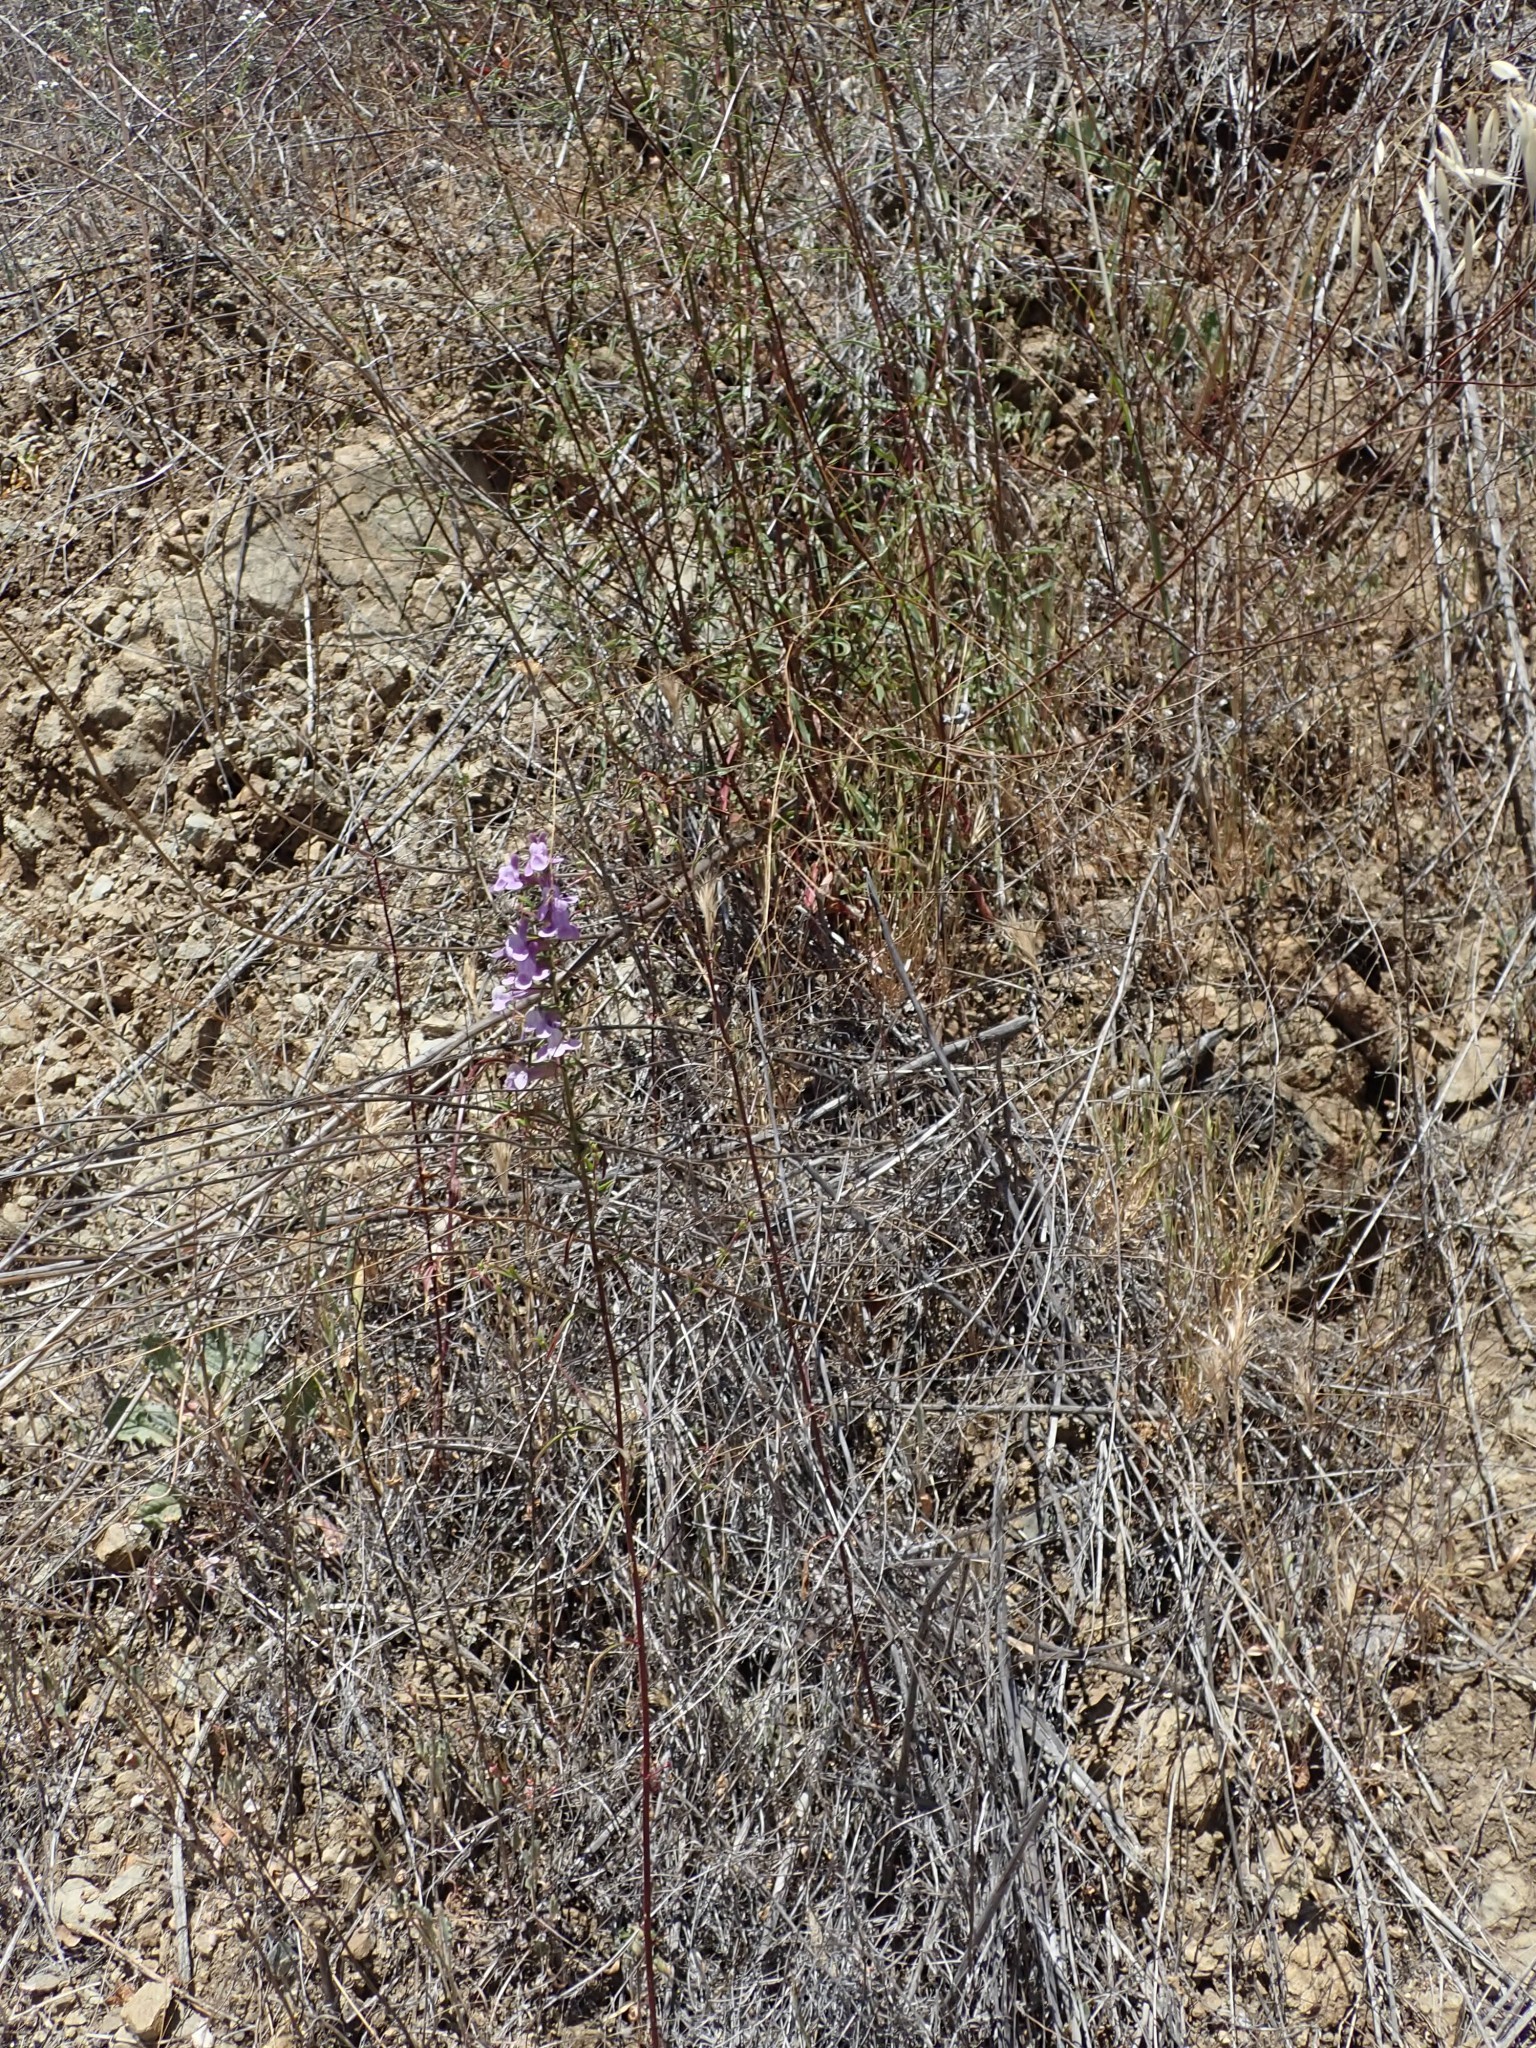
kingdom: Plantae
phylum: Tracheophyta
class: Magnoliopsida
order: Lamiales
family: Plantaginaceae
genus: Sairocarpus
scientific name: Sairocarpus vexillocalyculatus
